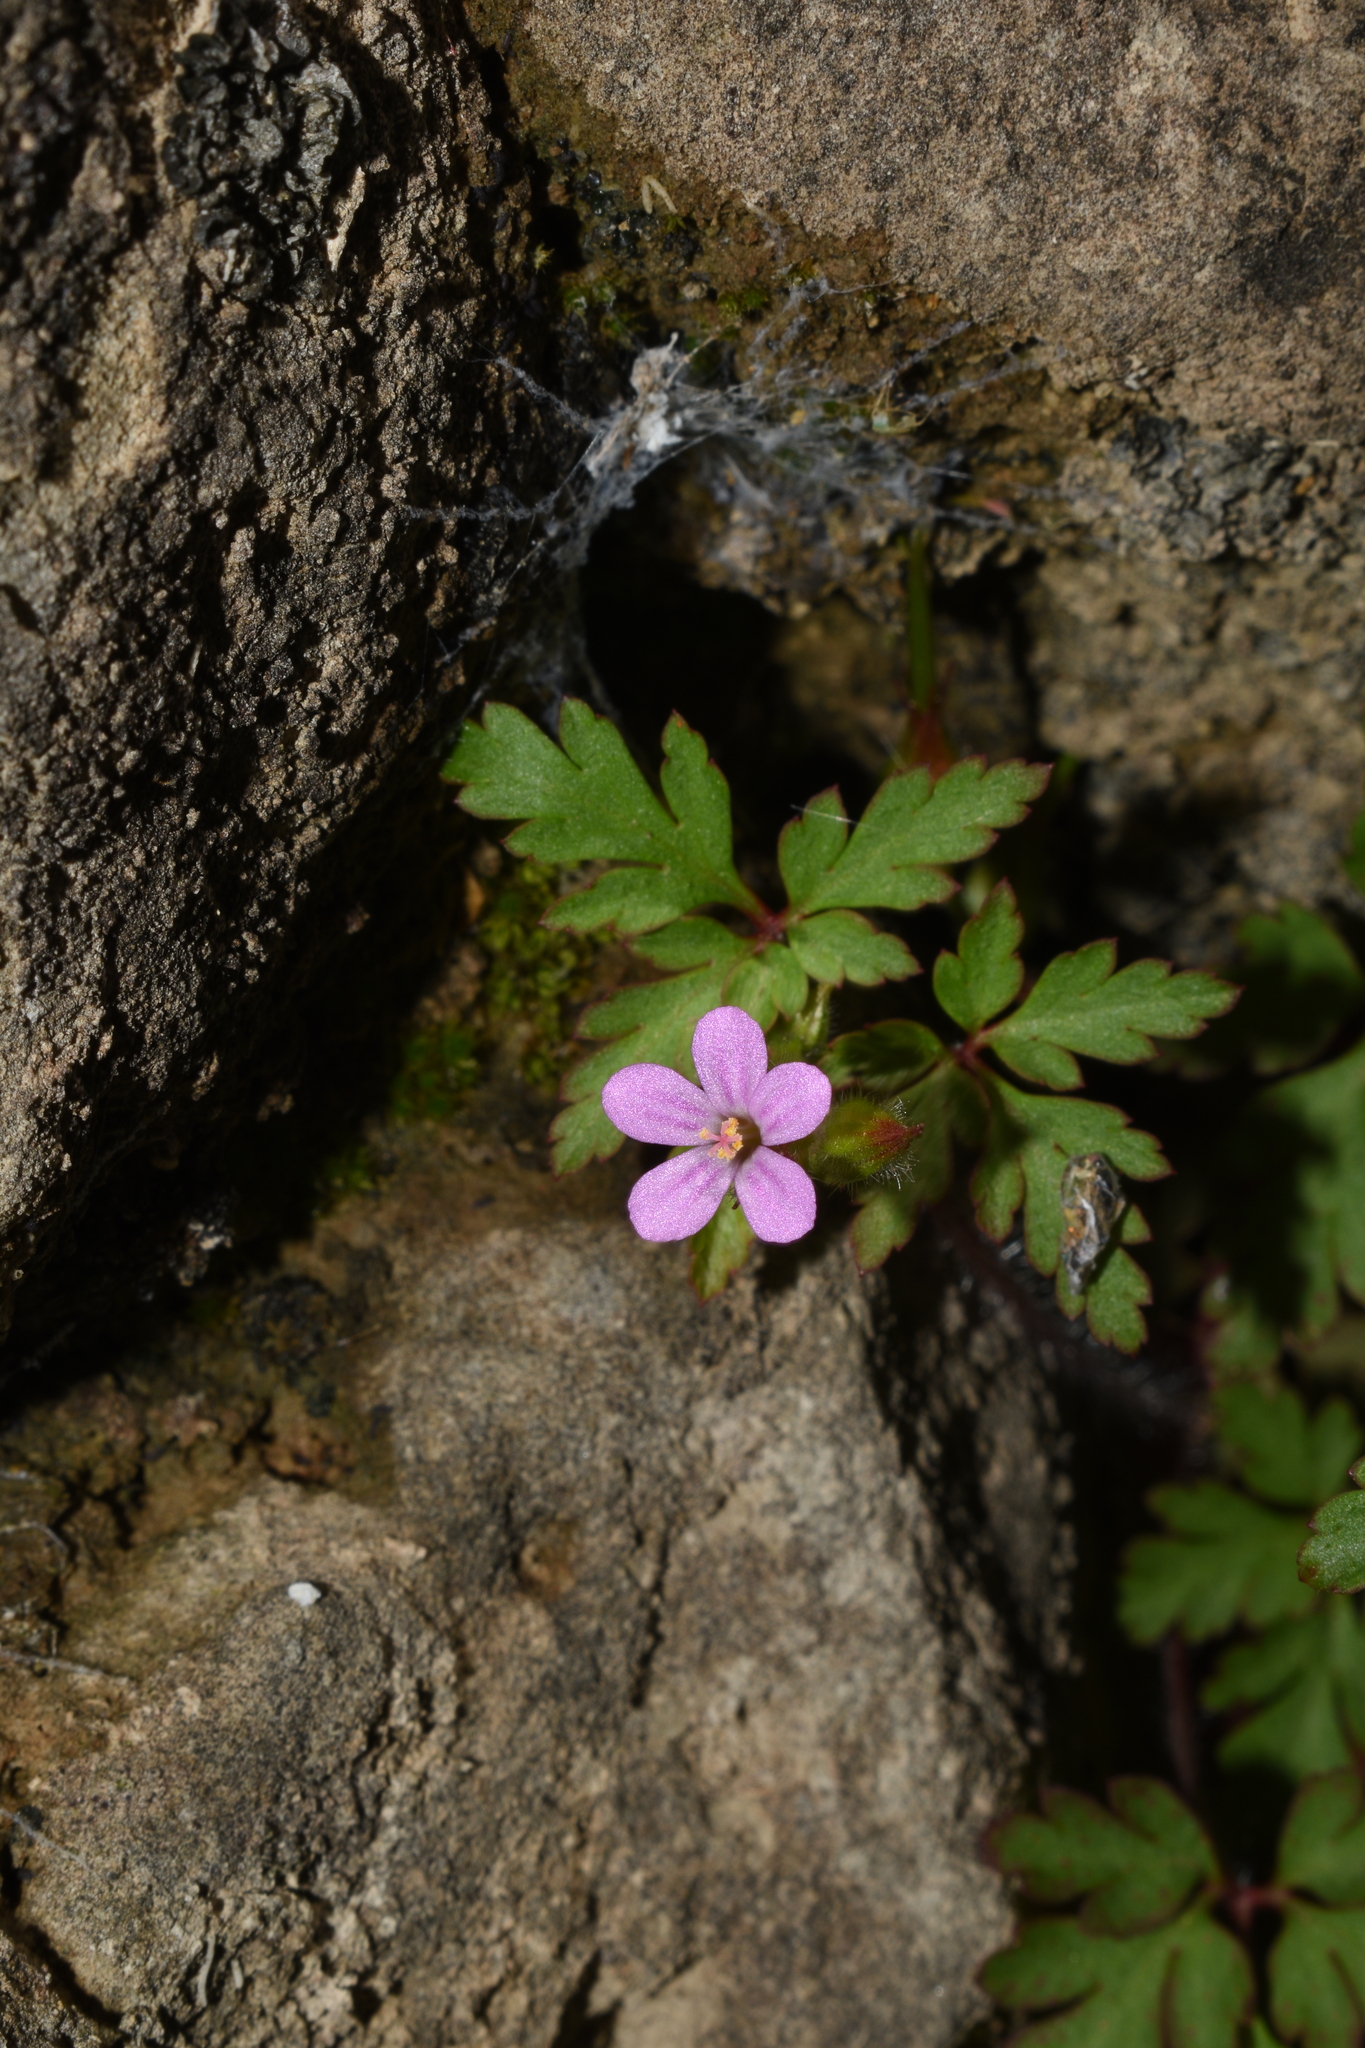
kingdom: Plantae
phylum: Tracheophyta
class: Magnoliopsida
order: Geraniales
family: Geraniaceae
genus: Geranium
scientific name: Geranium robertianum
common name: Herb-robert
